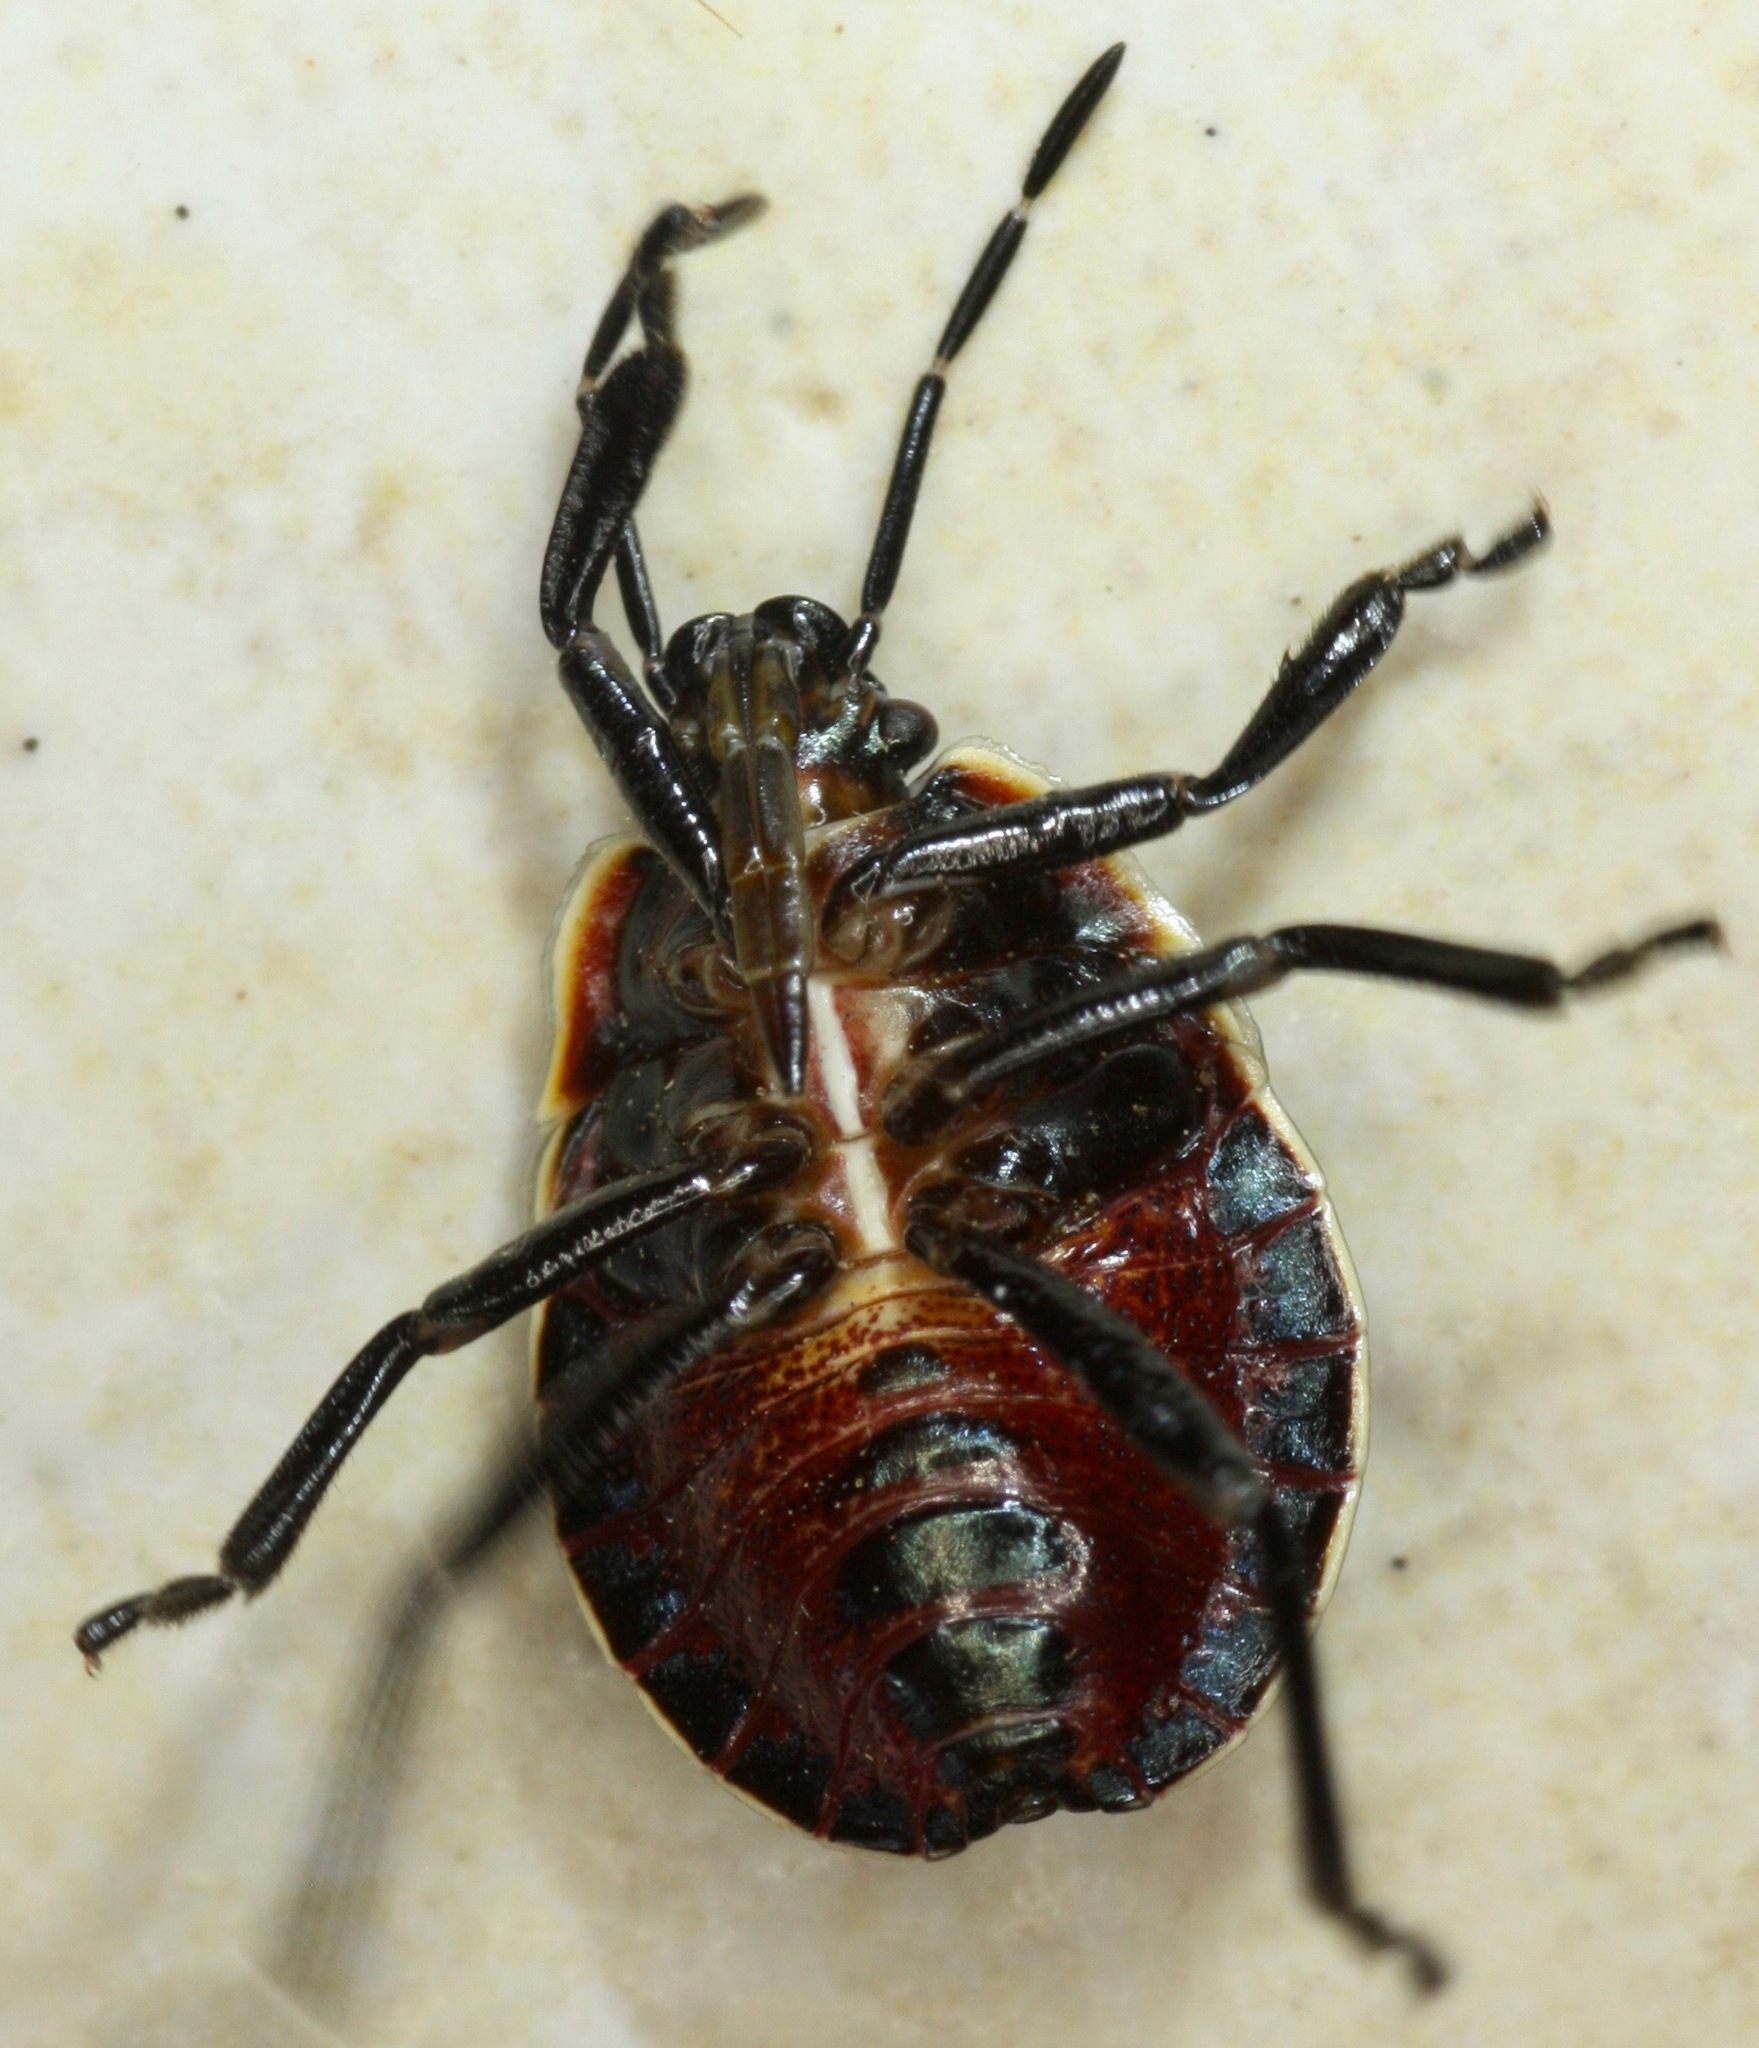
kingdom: Animalia
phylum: Arthropoda
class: Insecta
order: Hemiptera
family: Pentatomidae
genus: Apateticus
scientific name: Apateticus marginiventris
